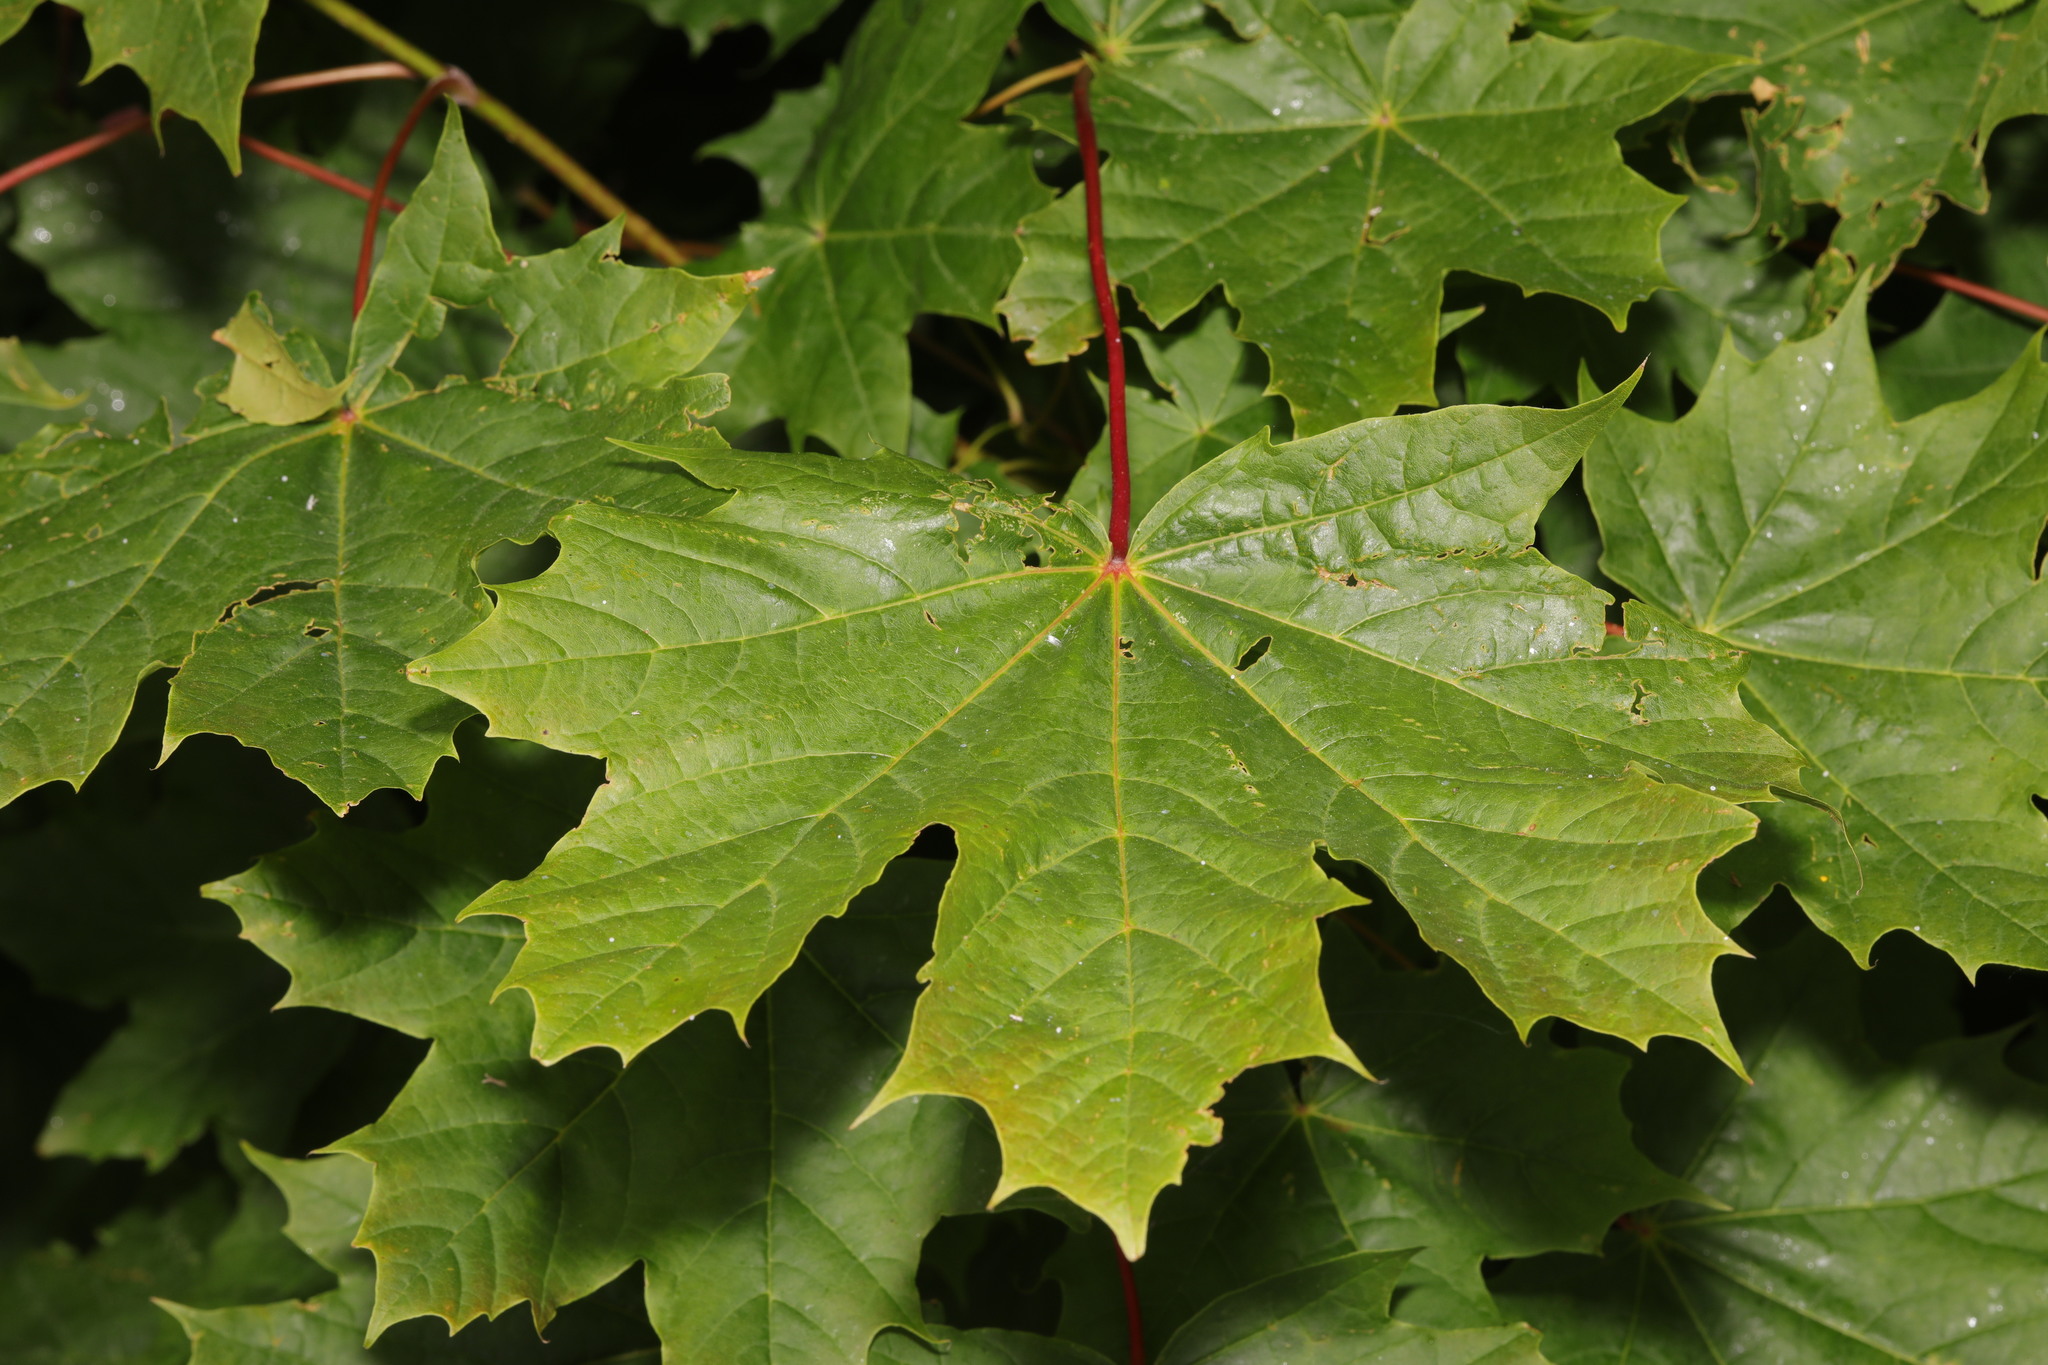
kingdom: Plantae
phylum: Tracheophyta
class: Magnoliopsida
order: Sapindales
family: Sapindaceae
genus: Acer
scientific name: Acer platanoides
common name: Norway maple
